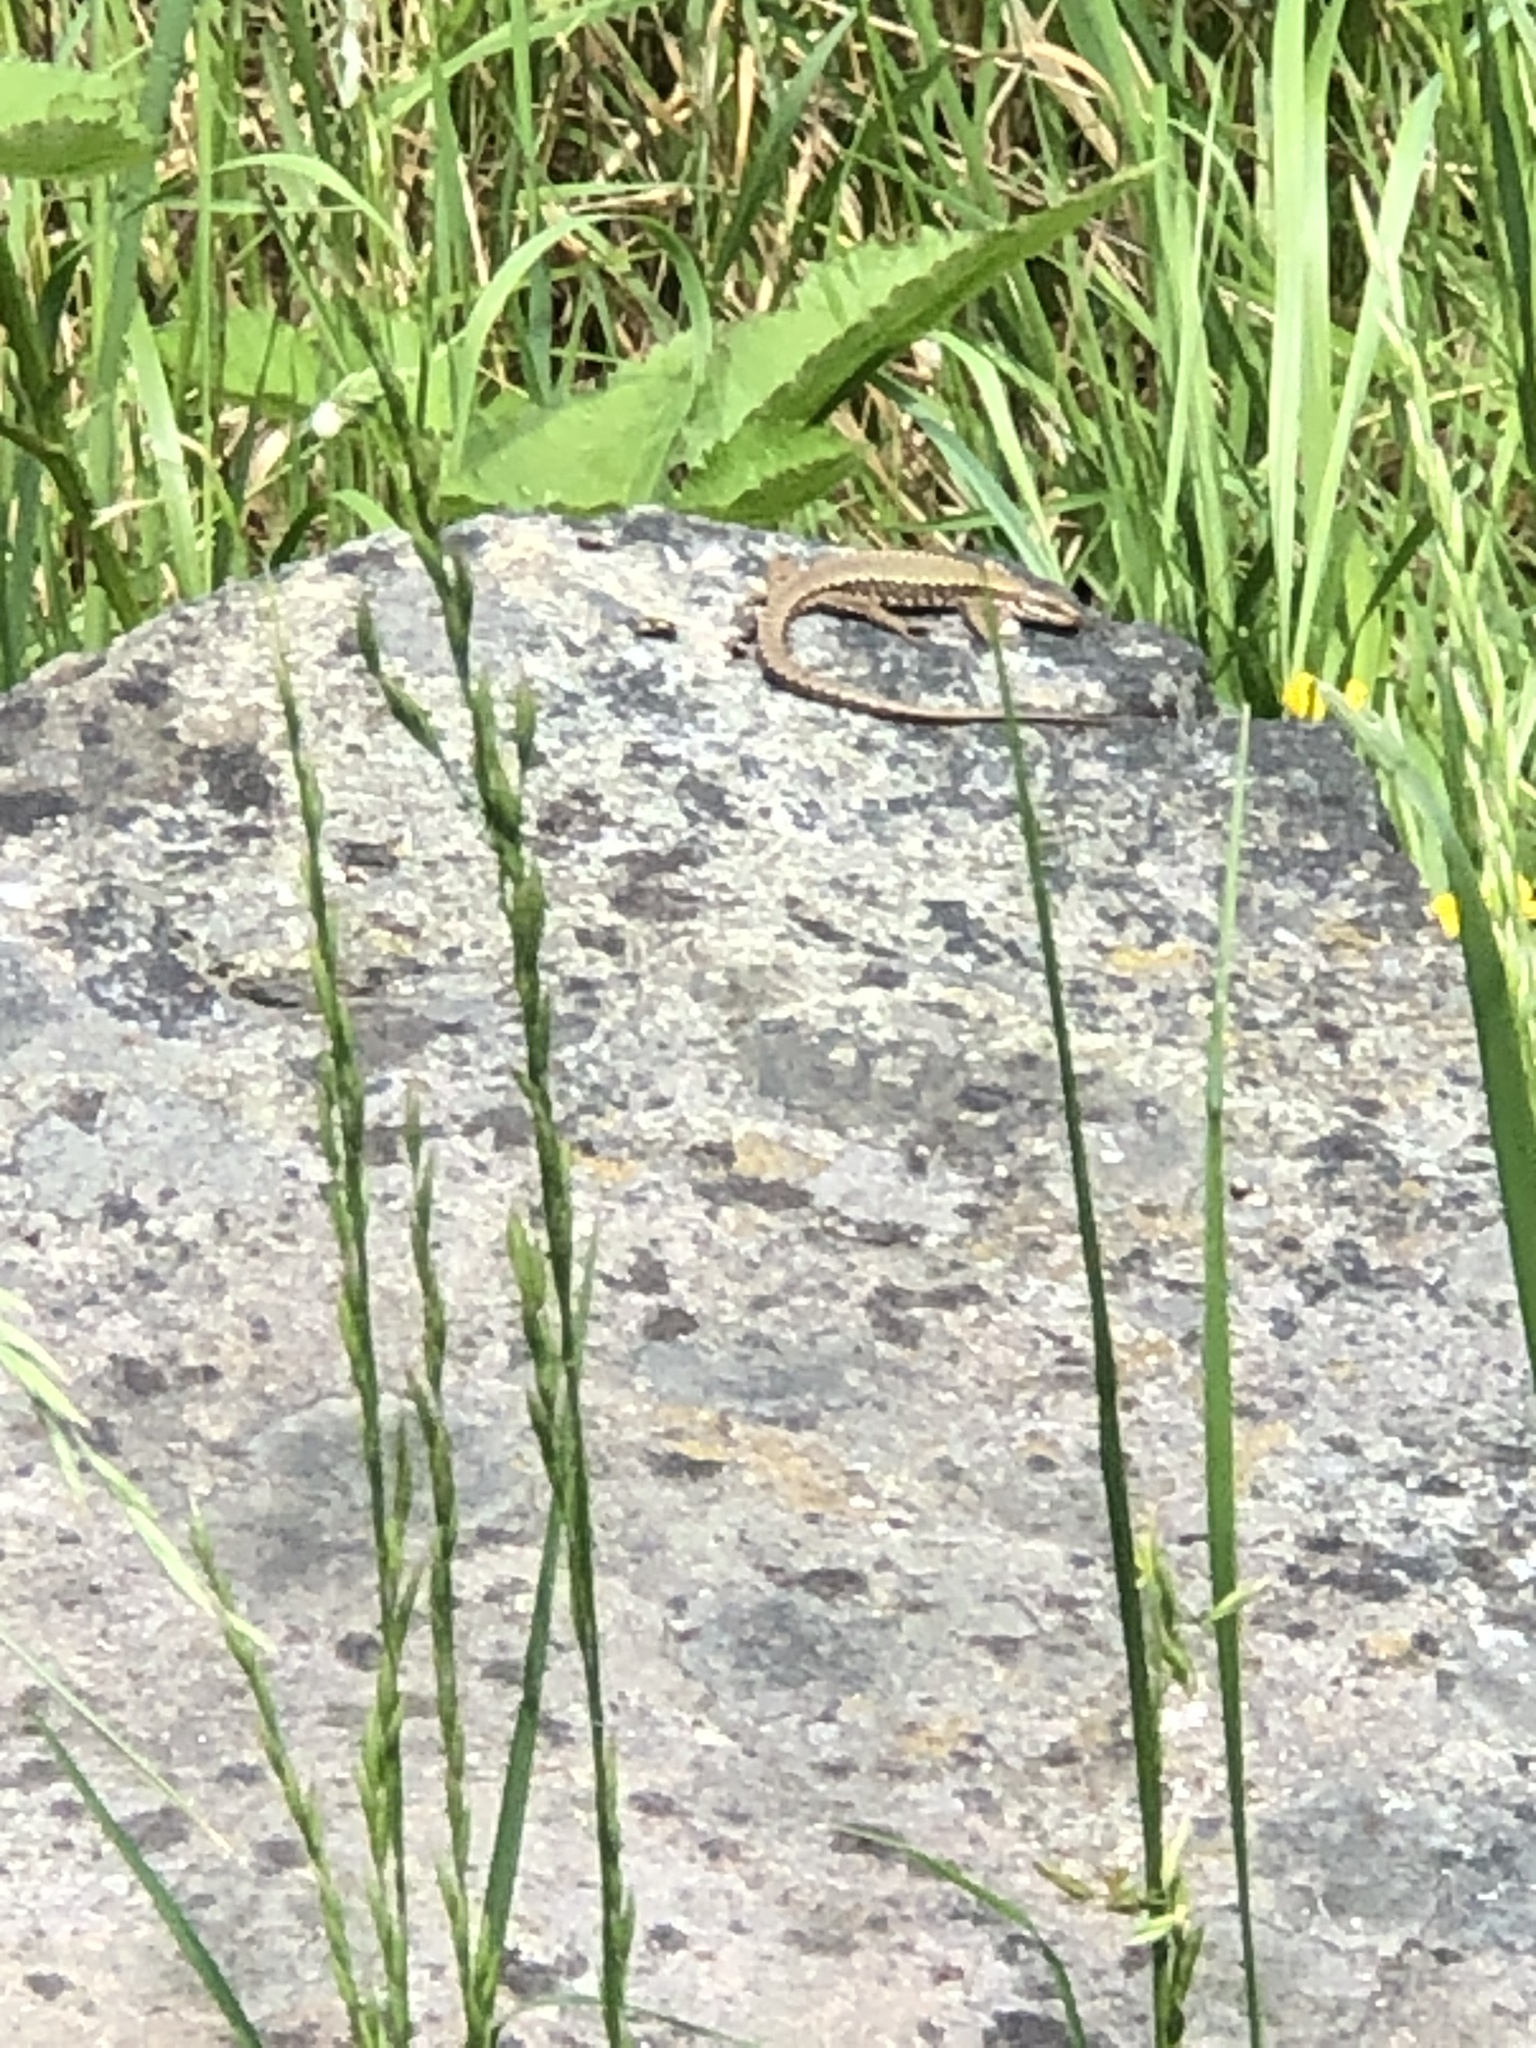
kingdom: Animalia
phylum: Chordata
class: Squamata
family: Lacertidae
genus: Podarcis
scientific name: Podarcis muralis
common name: Common wall lizard
